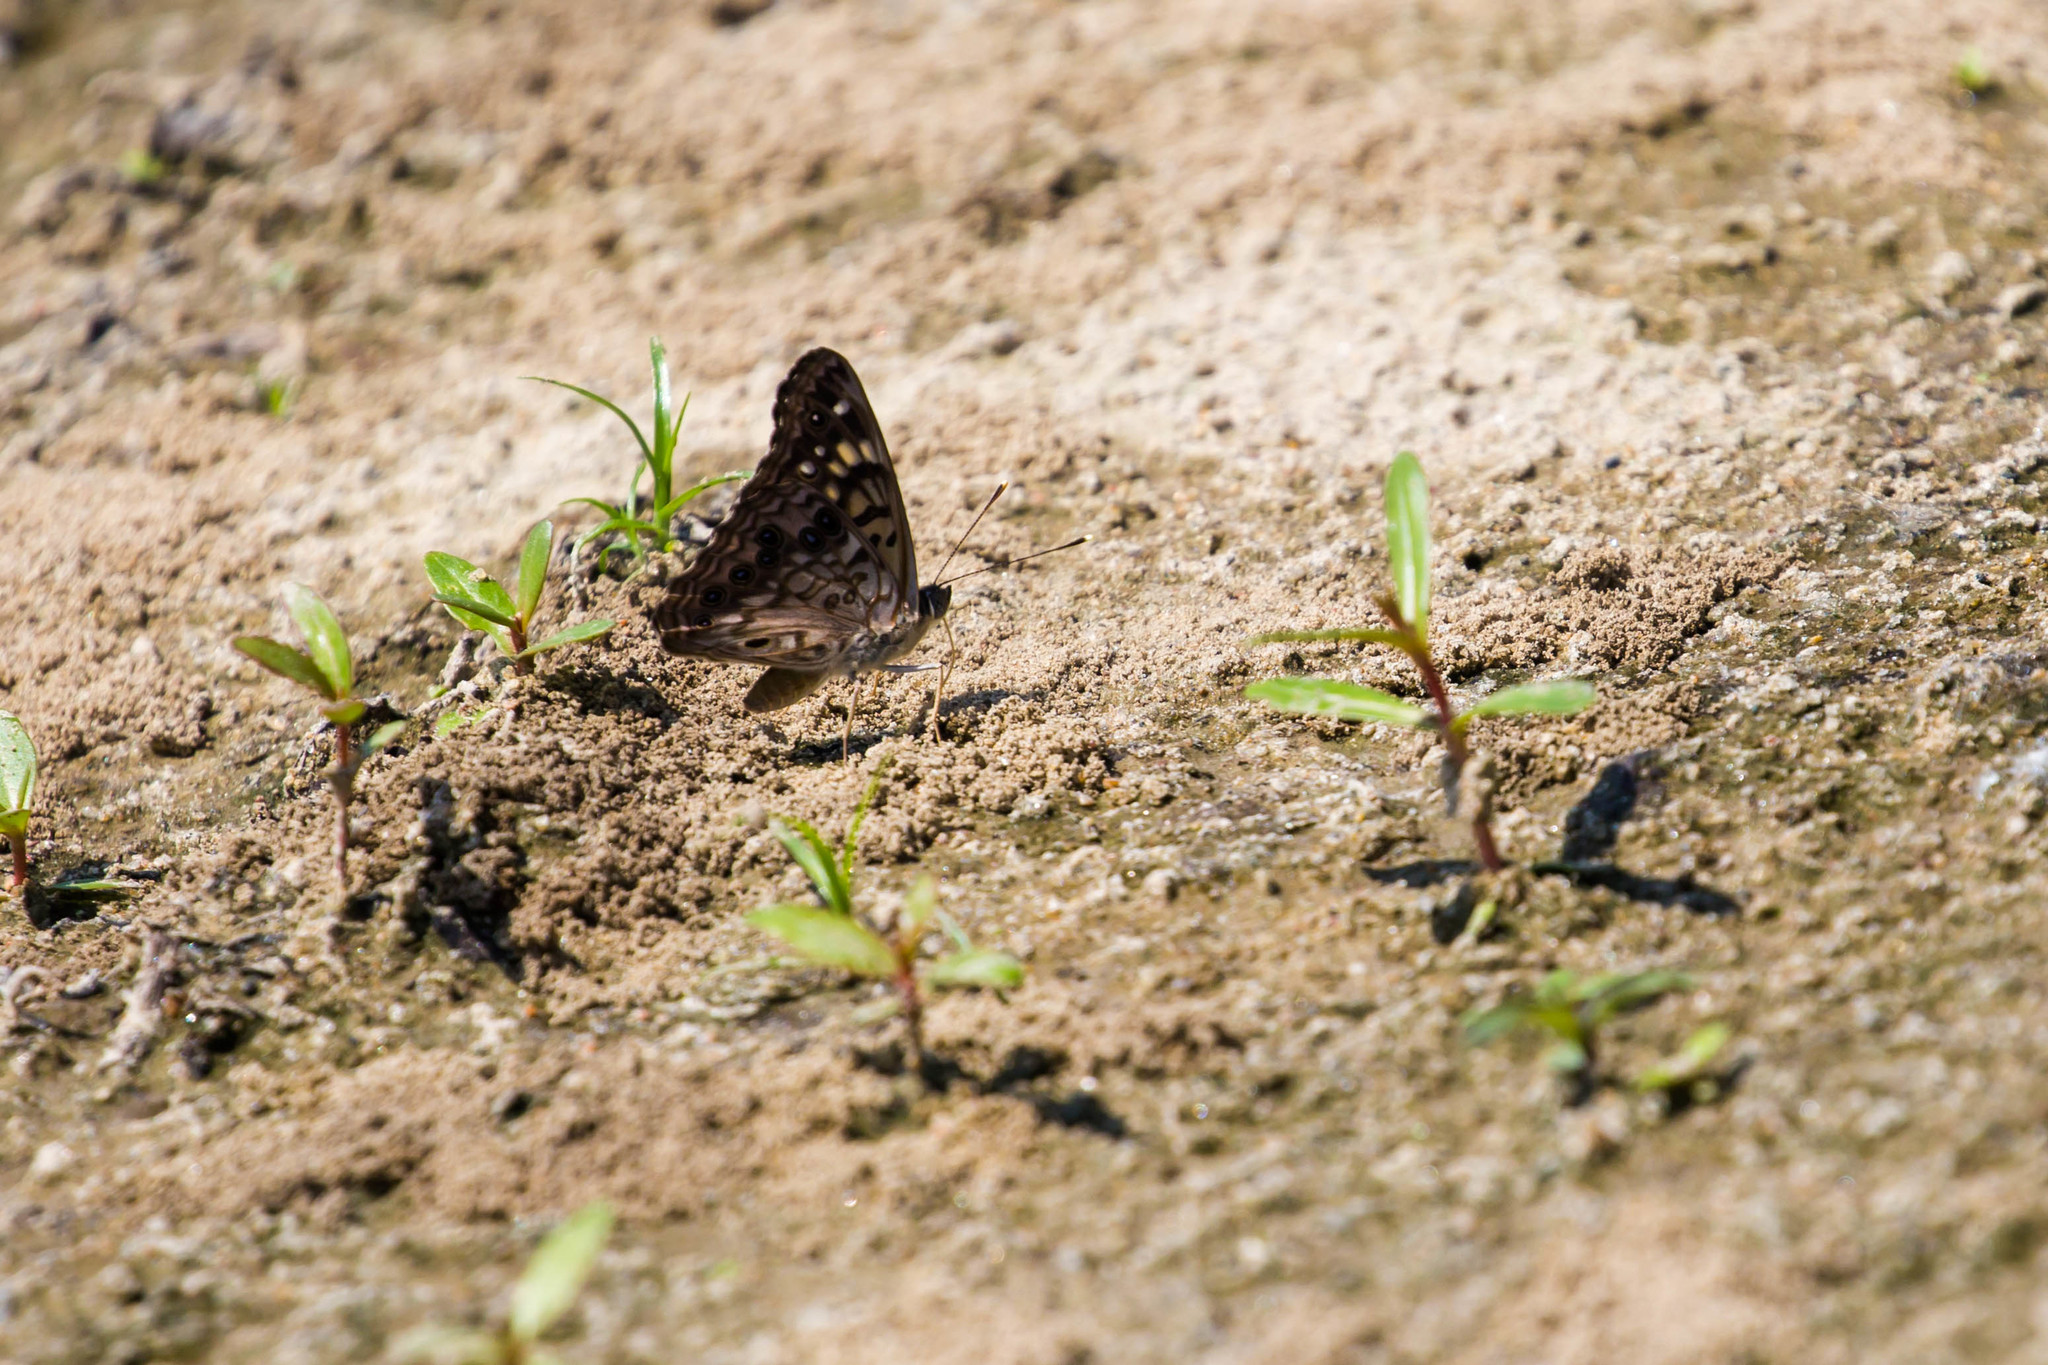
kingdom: Animalia
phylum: Arthropoda
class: Insecta
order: Lepidoptera
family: Nymphalidae
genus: Asterocampa
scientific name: Asterocampa celtis
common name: Hackberry emperor
